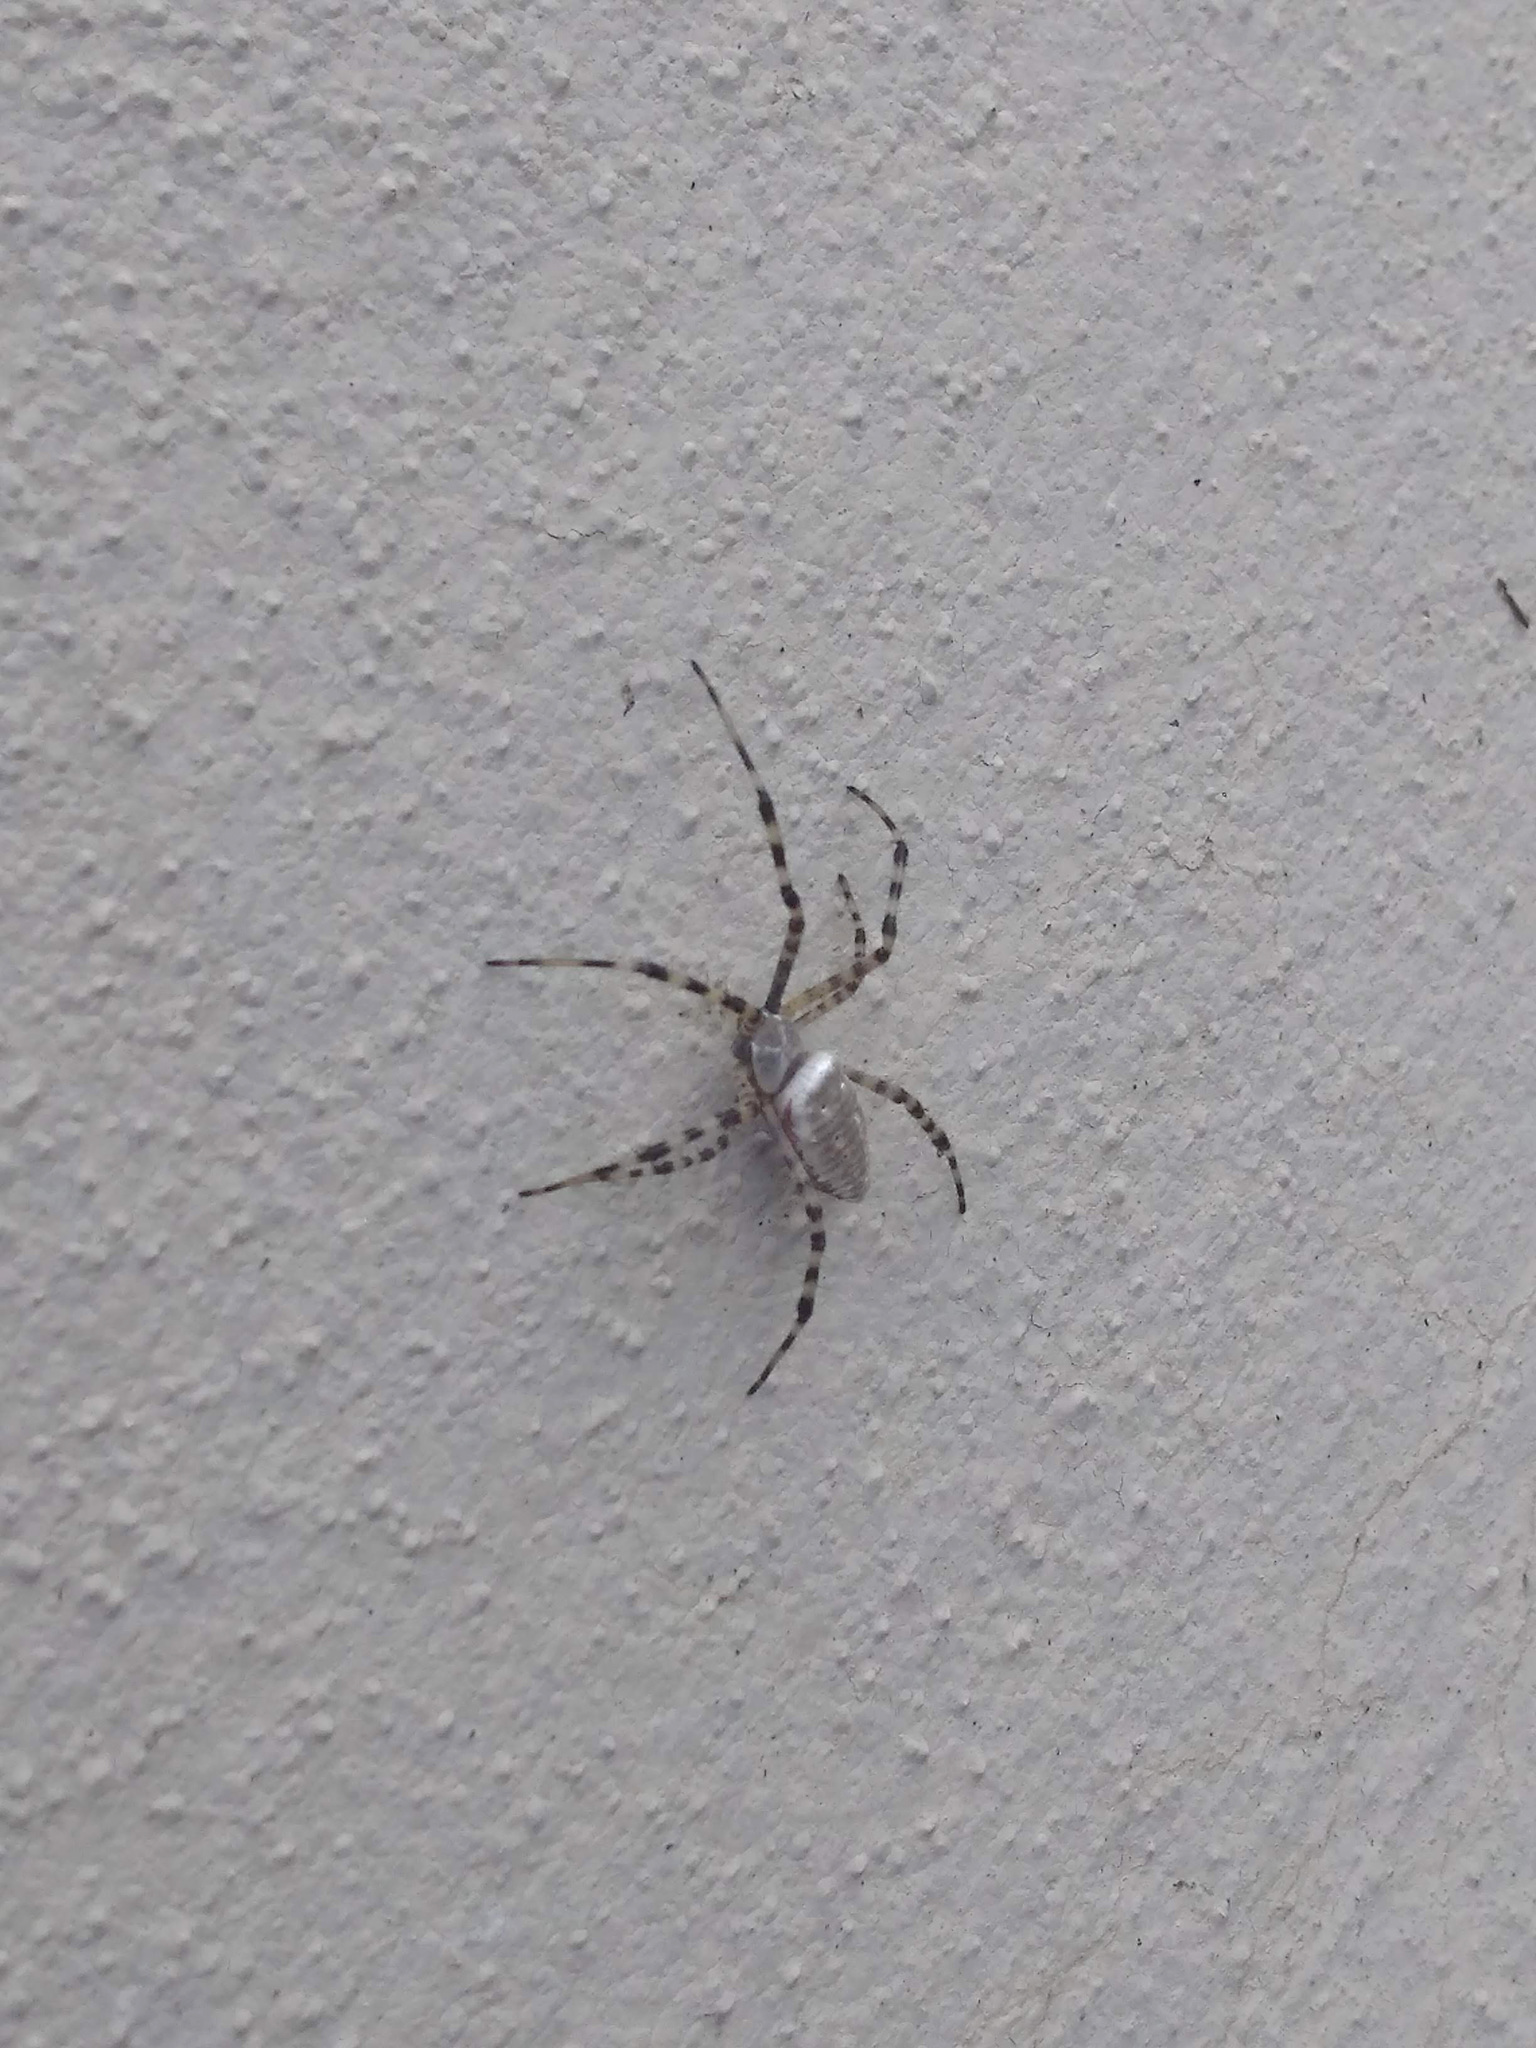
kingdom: Animalia
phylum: Arthropoda
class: Arachnida
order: Araneae
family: Araneidae
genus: Argiope
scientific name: Argiope trifasciata
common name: Banded garden spider
